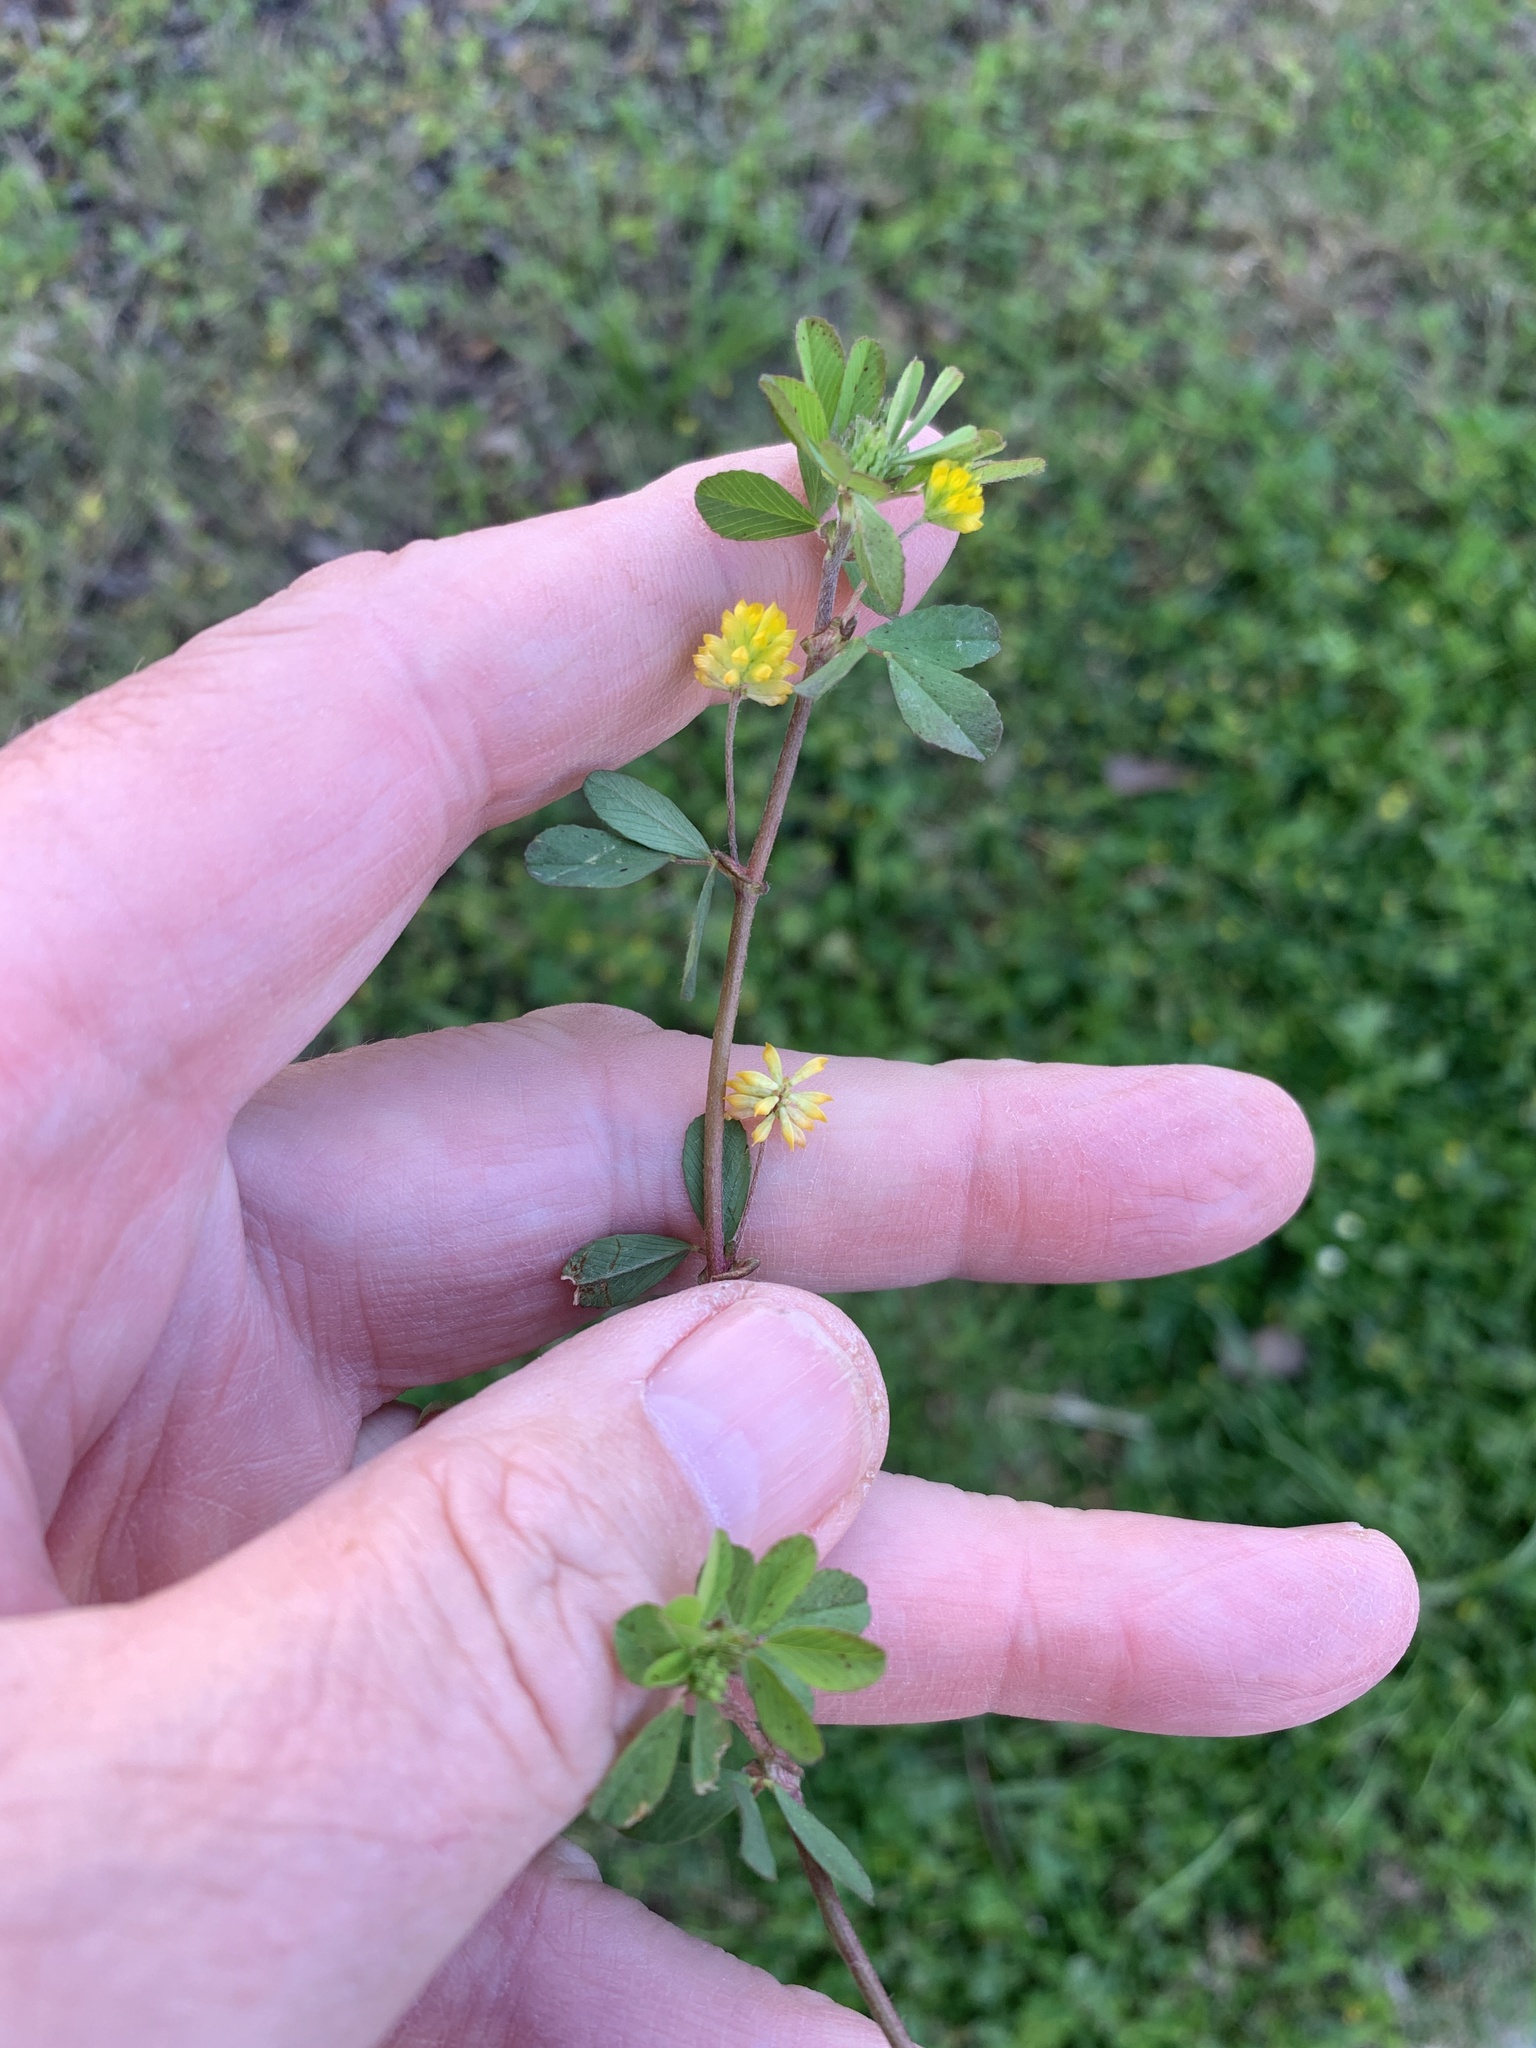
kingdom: Plantae
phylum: Tracheophyta
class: Magnoliopsida
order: Fabales
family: Fabaceae
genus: Trifolium
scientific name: Trifolium dubium
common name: Suckling clover
